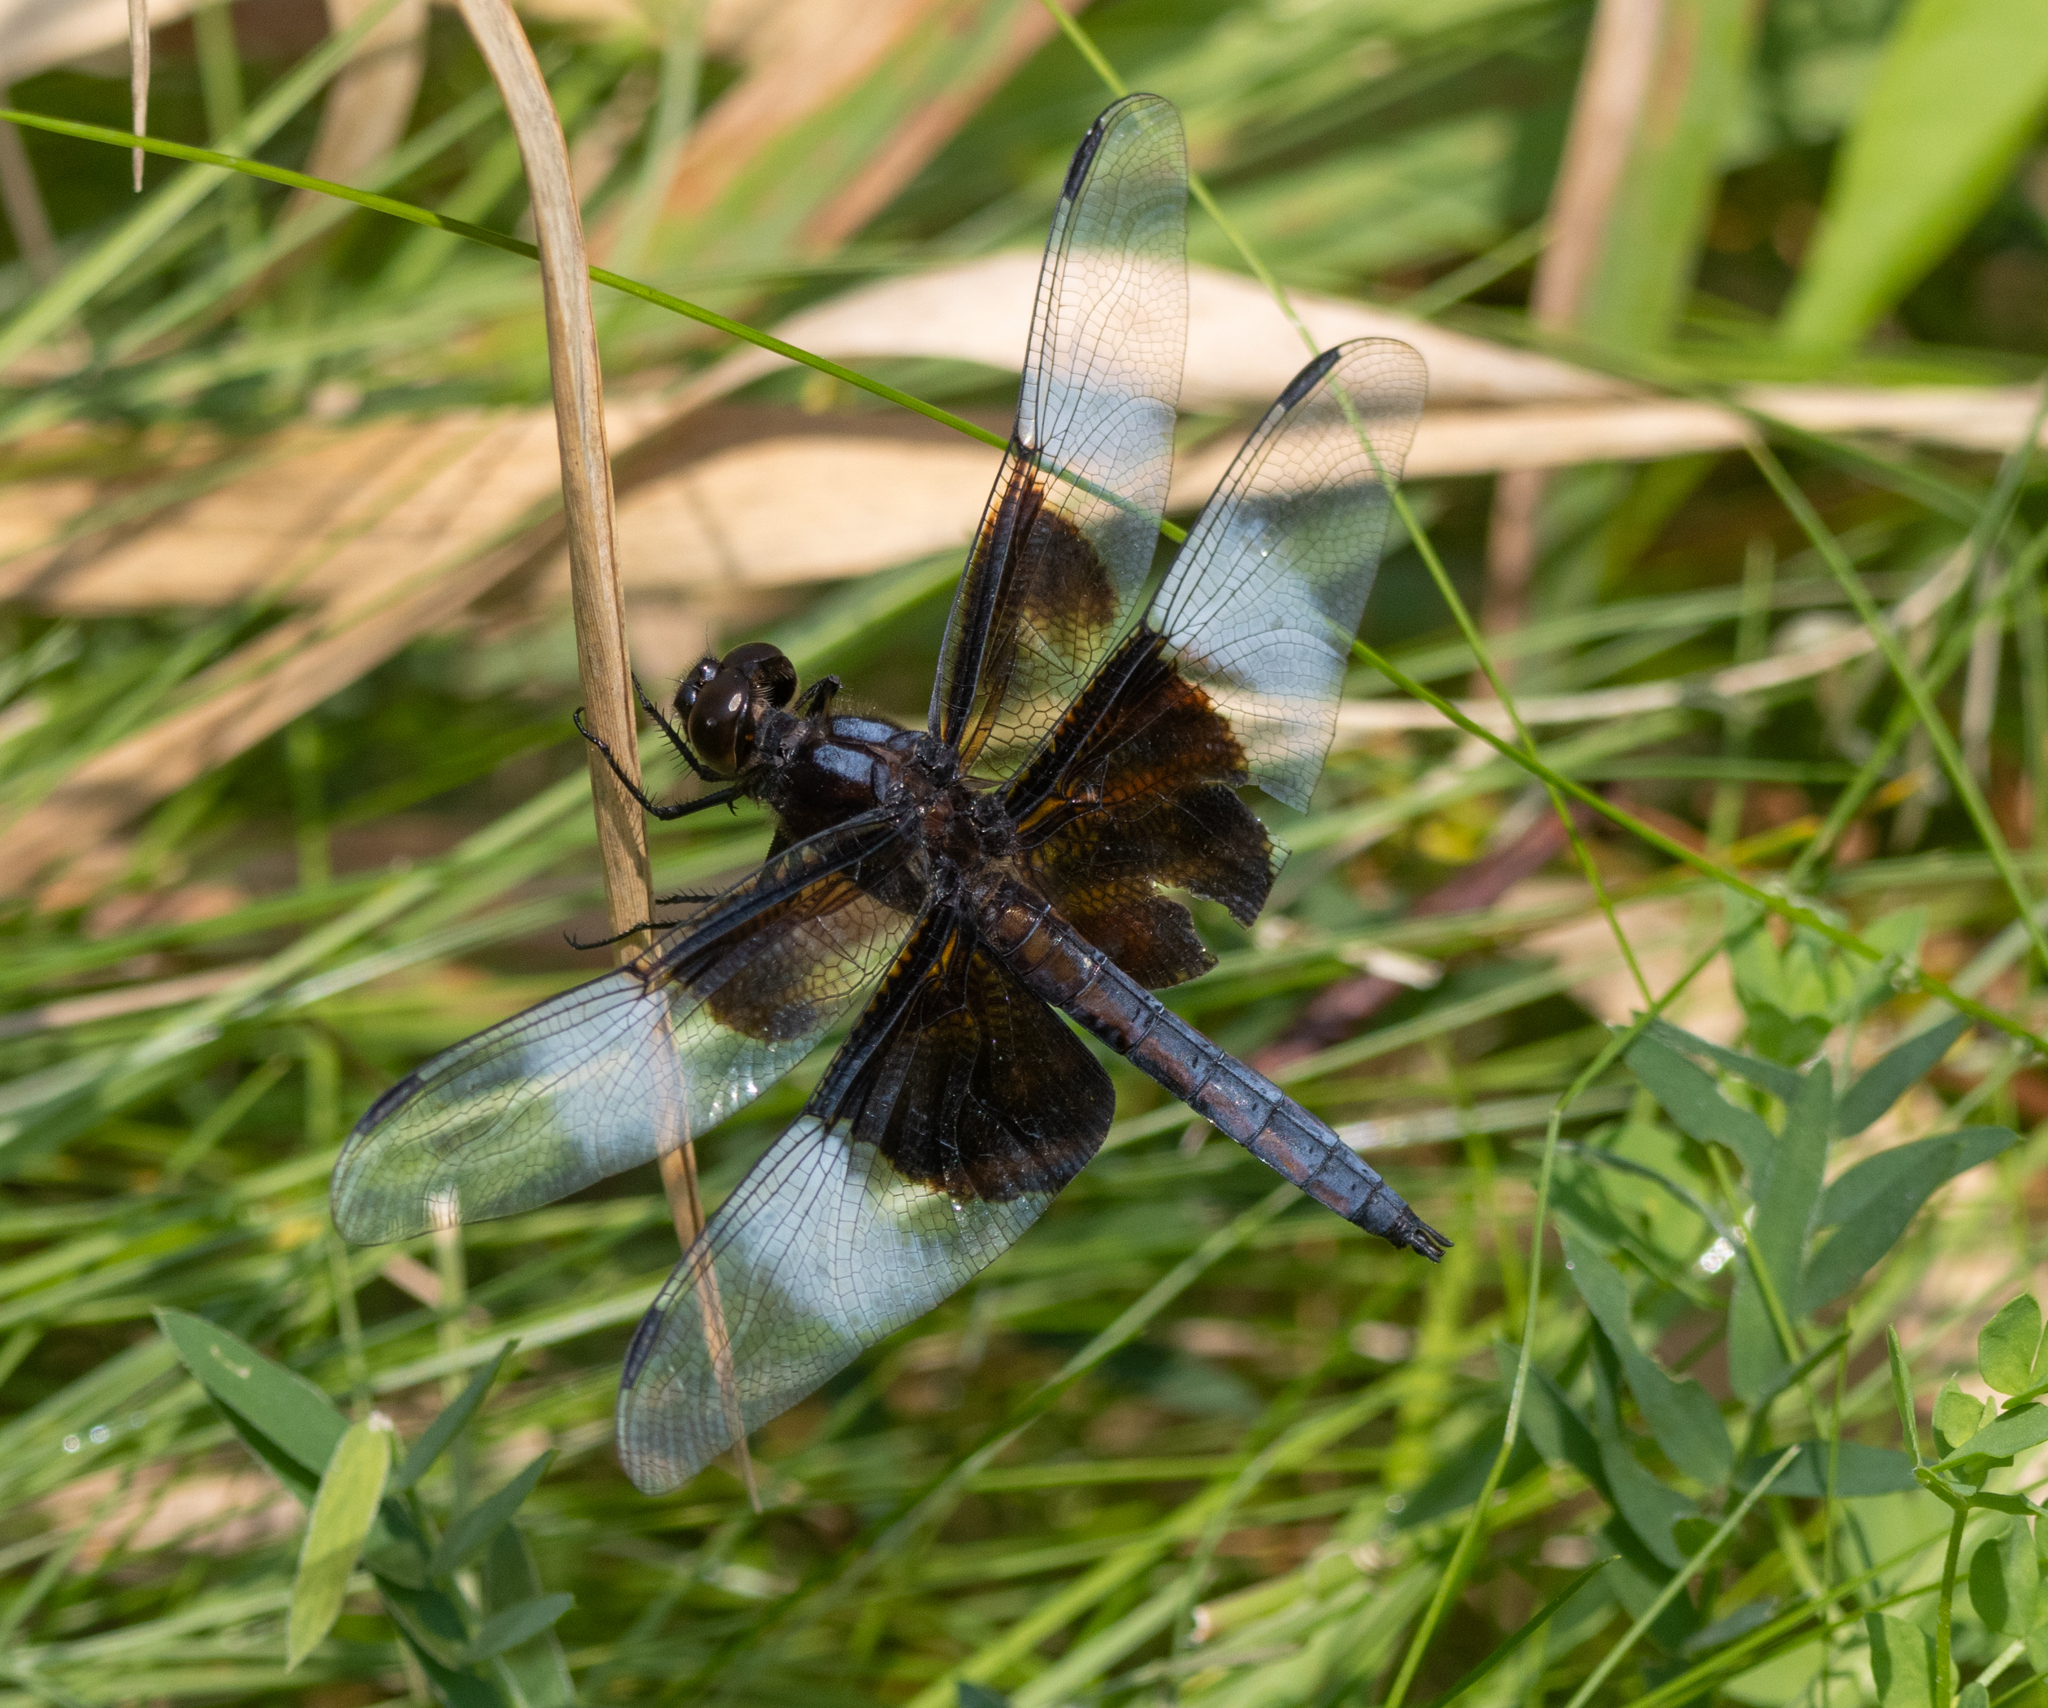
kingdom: Animalia
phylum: Arthropoda
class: Insecta
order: Odonata
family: Libellulidae
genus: Libellula
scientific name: Libellula luctuosa
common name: Widow skimmer
